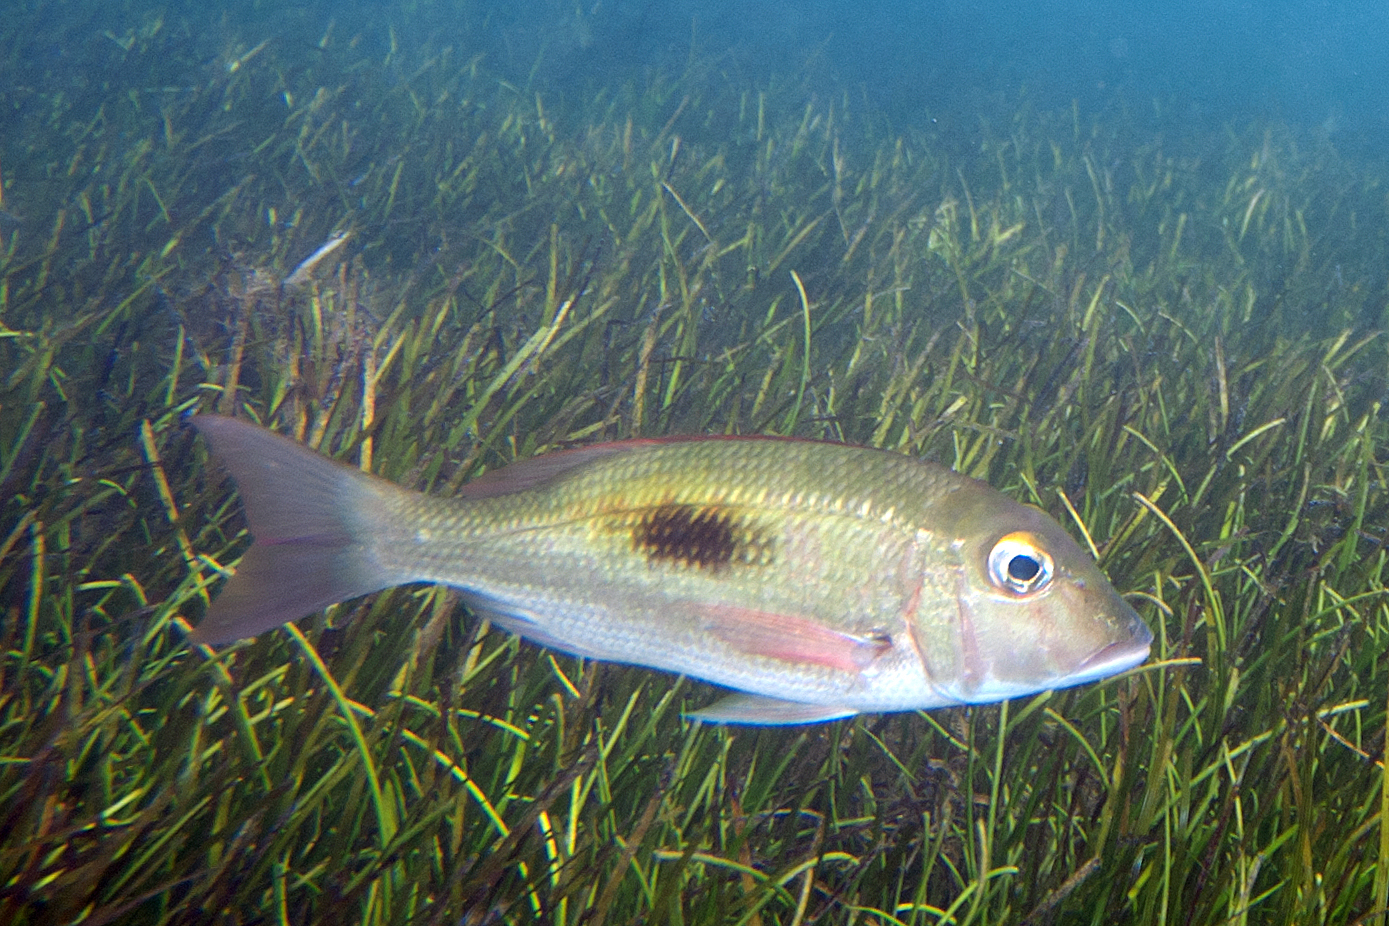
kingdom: Animalia
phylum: Chordata
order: Perciformes
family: Lethrinidae
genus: Lethrinus
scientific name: Lethrinus harak
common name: Blackspot emperor
